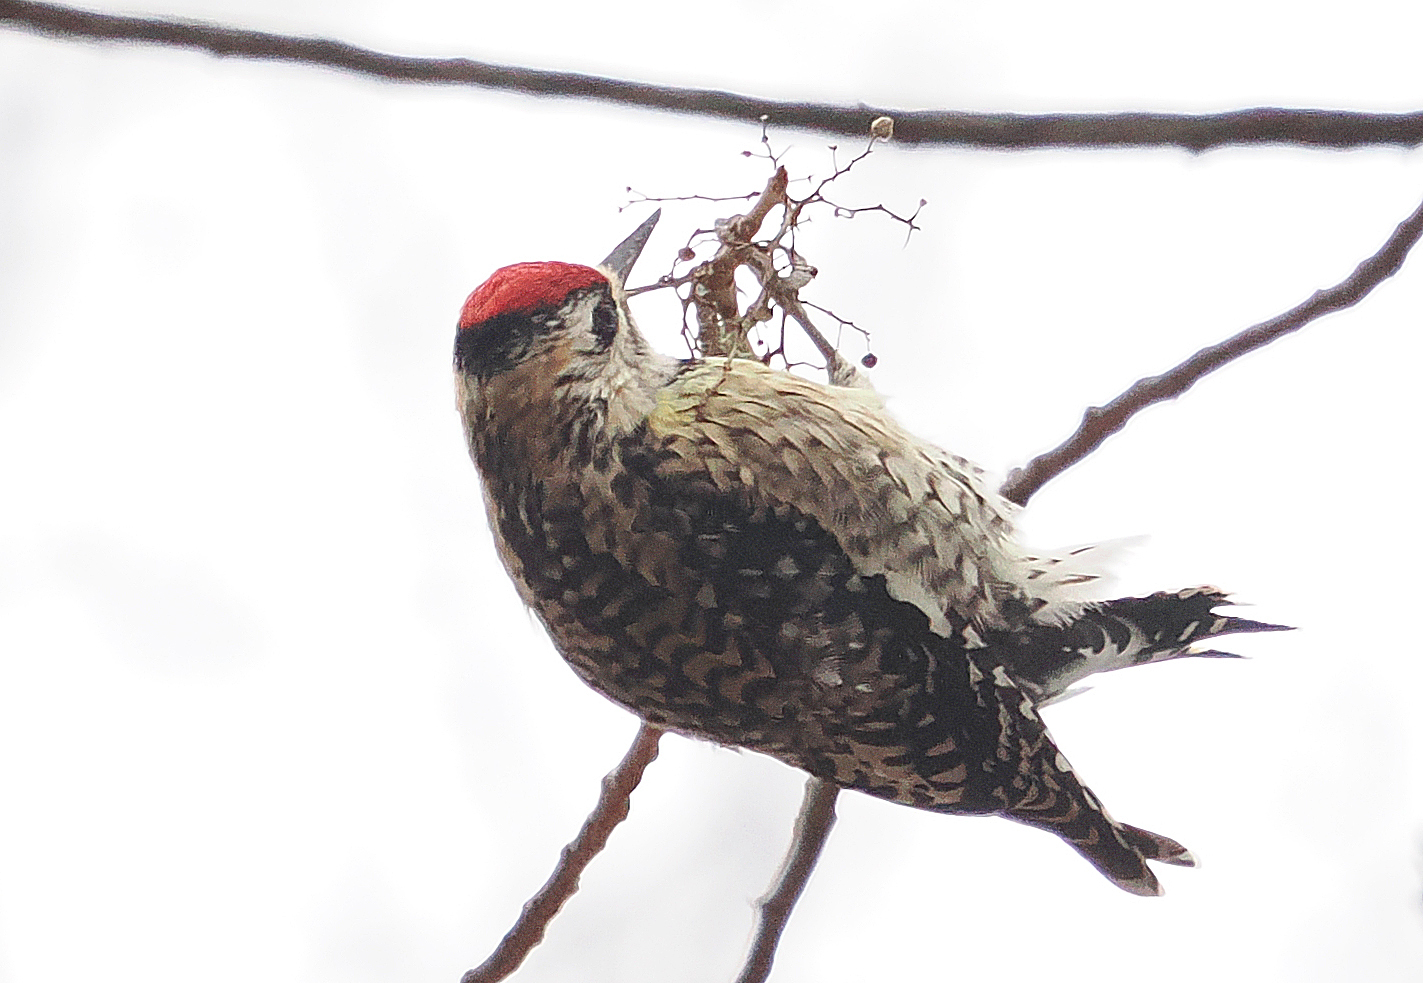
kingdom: Animalia
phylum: Chordata
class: Aves
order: Piciformes
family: Picidae
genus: Sphyrapicus
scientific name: Sphyrapicus varius
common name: Yellow-bellied sapsucker
